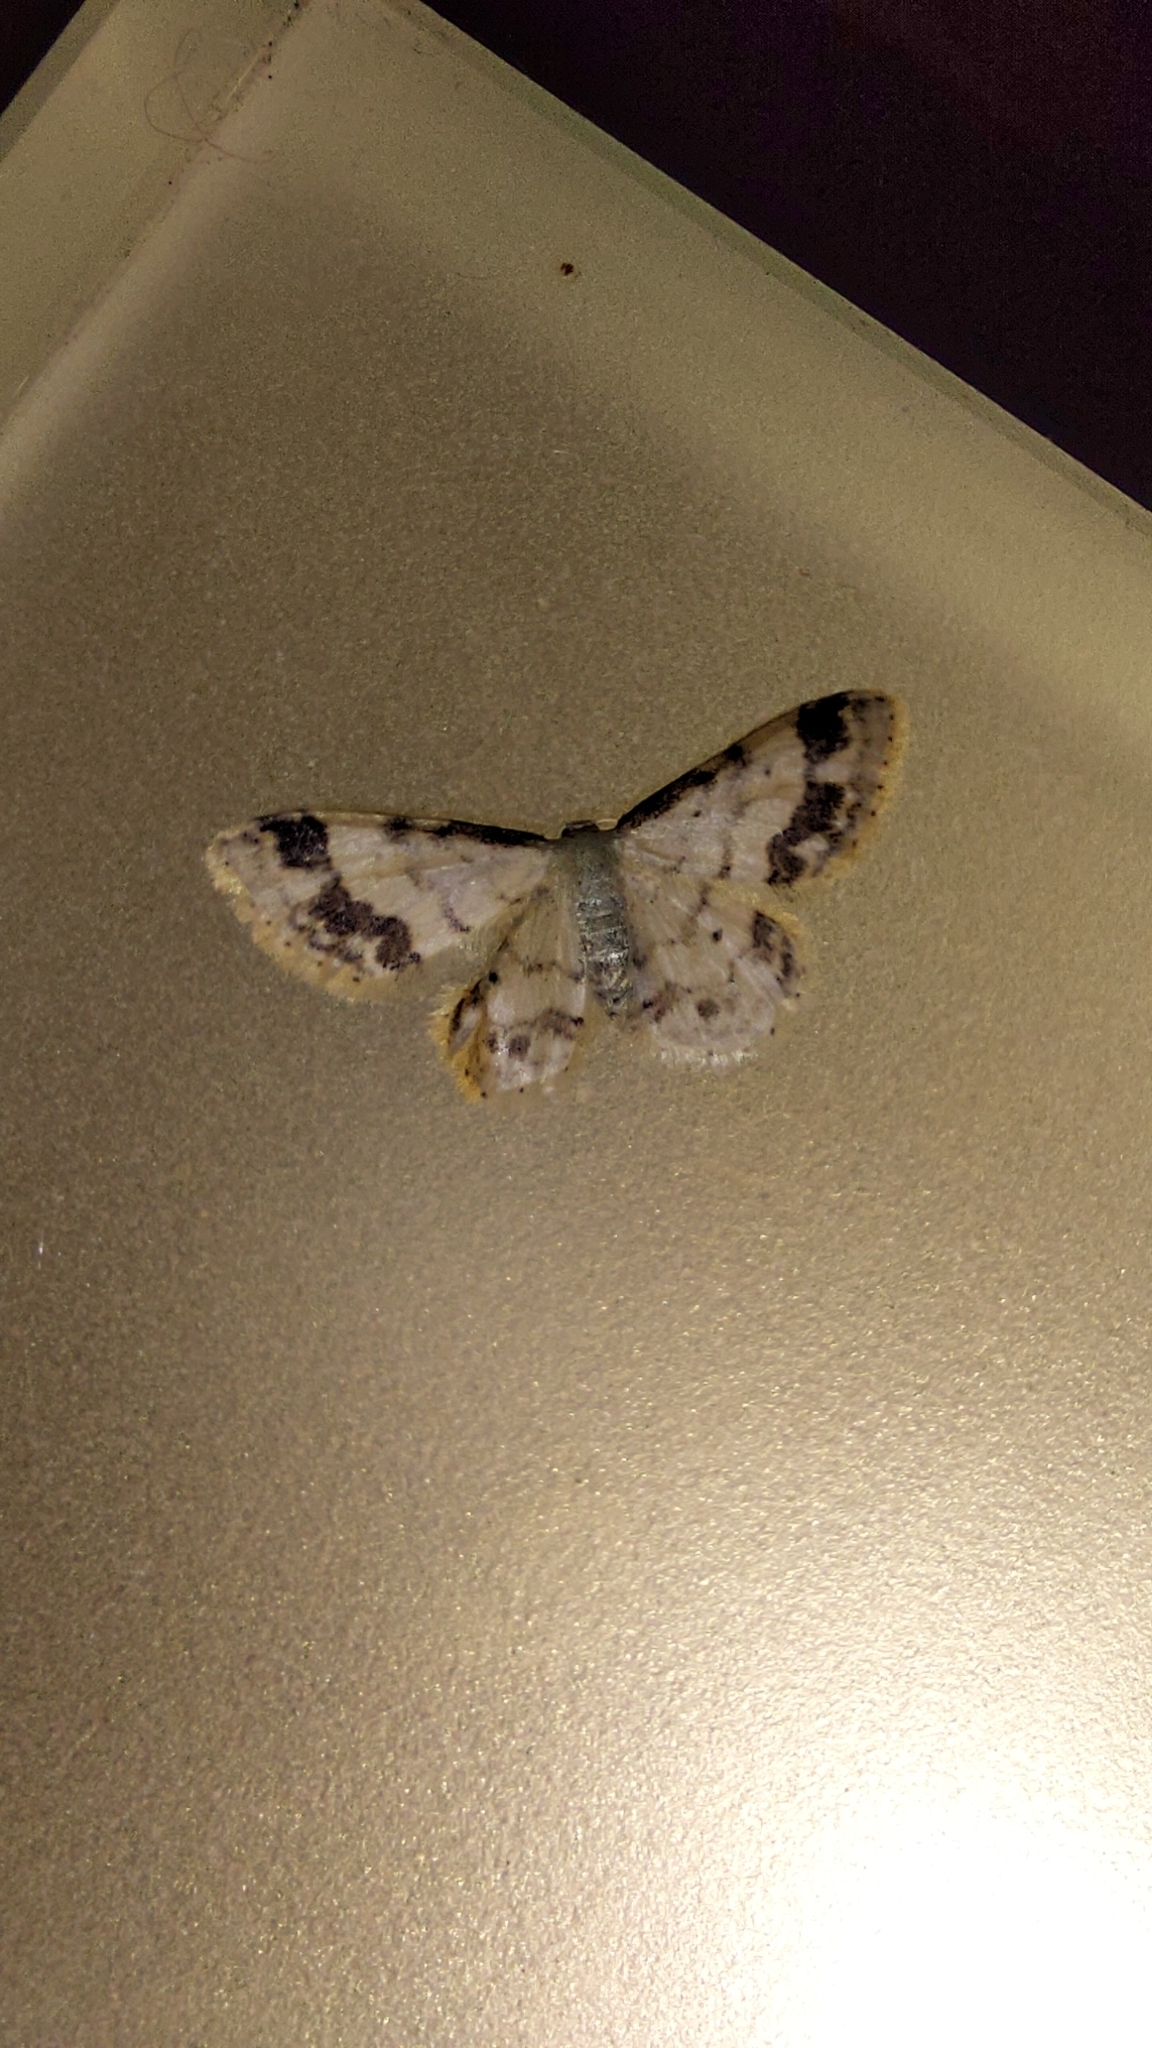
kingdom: Animalia
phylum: Arthropoda
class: Insecta
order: Lepidoptera
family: Geometridae
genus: Idaea
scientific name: Idaea trigeminata
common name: Treble brown spot
